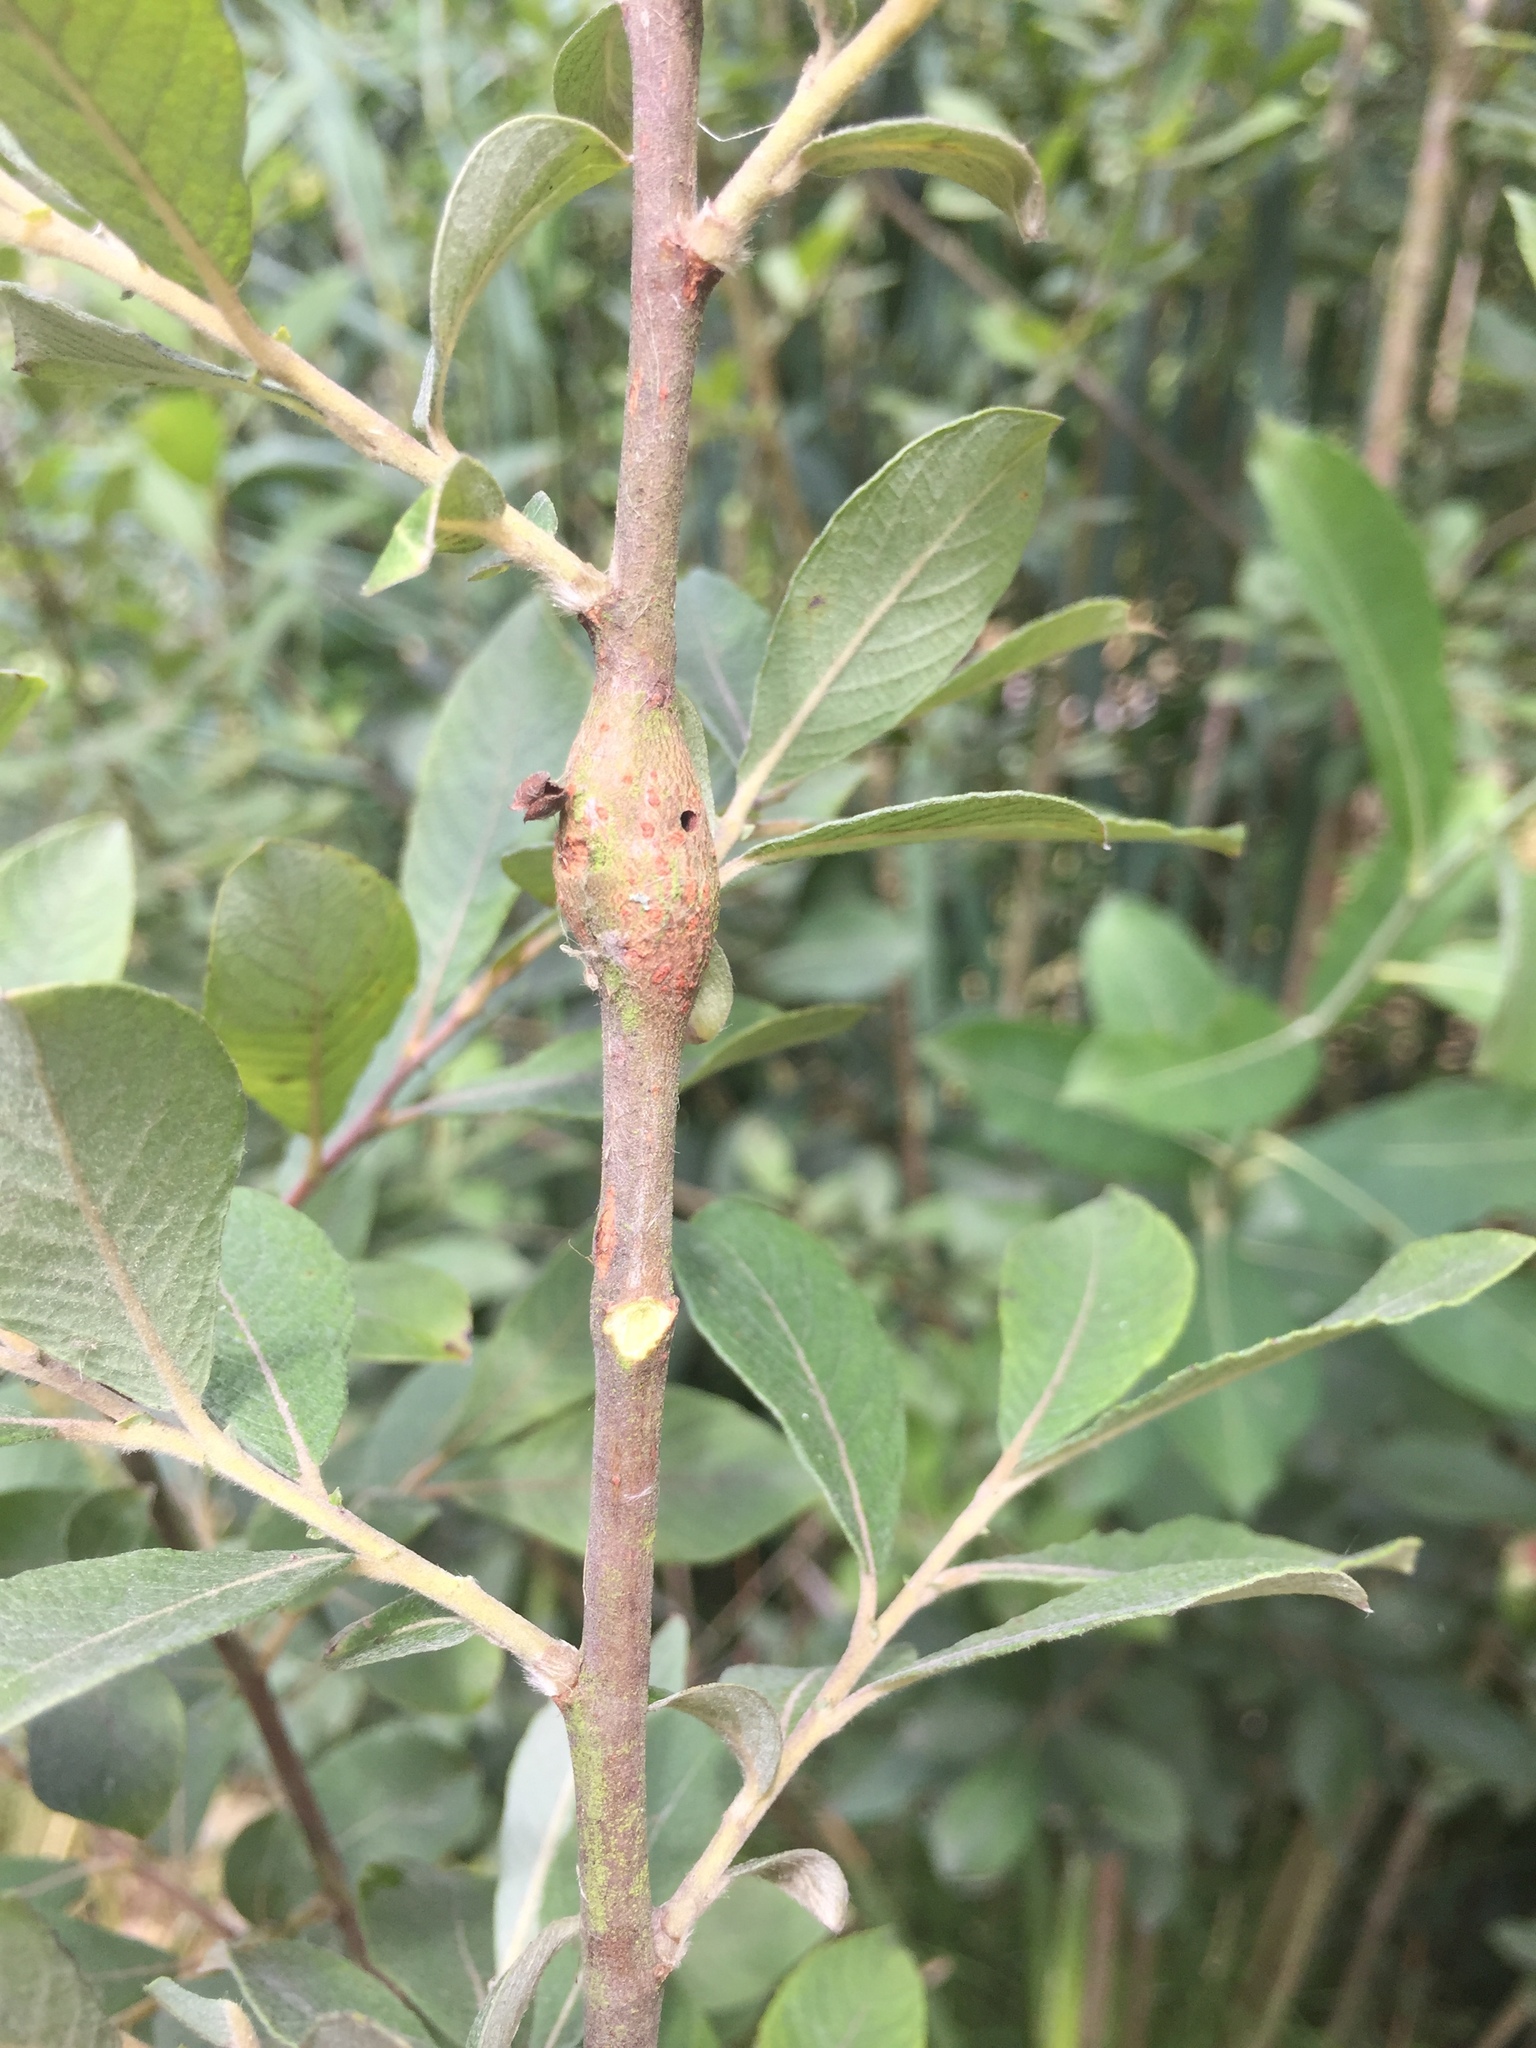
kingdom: Animalia
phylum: Arthropoda
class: Insecta
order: Diptera
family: Cecidomyiidae
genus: Rabdophaga
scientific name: Rabdophaga salicis
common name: Willow twig gall midge
